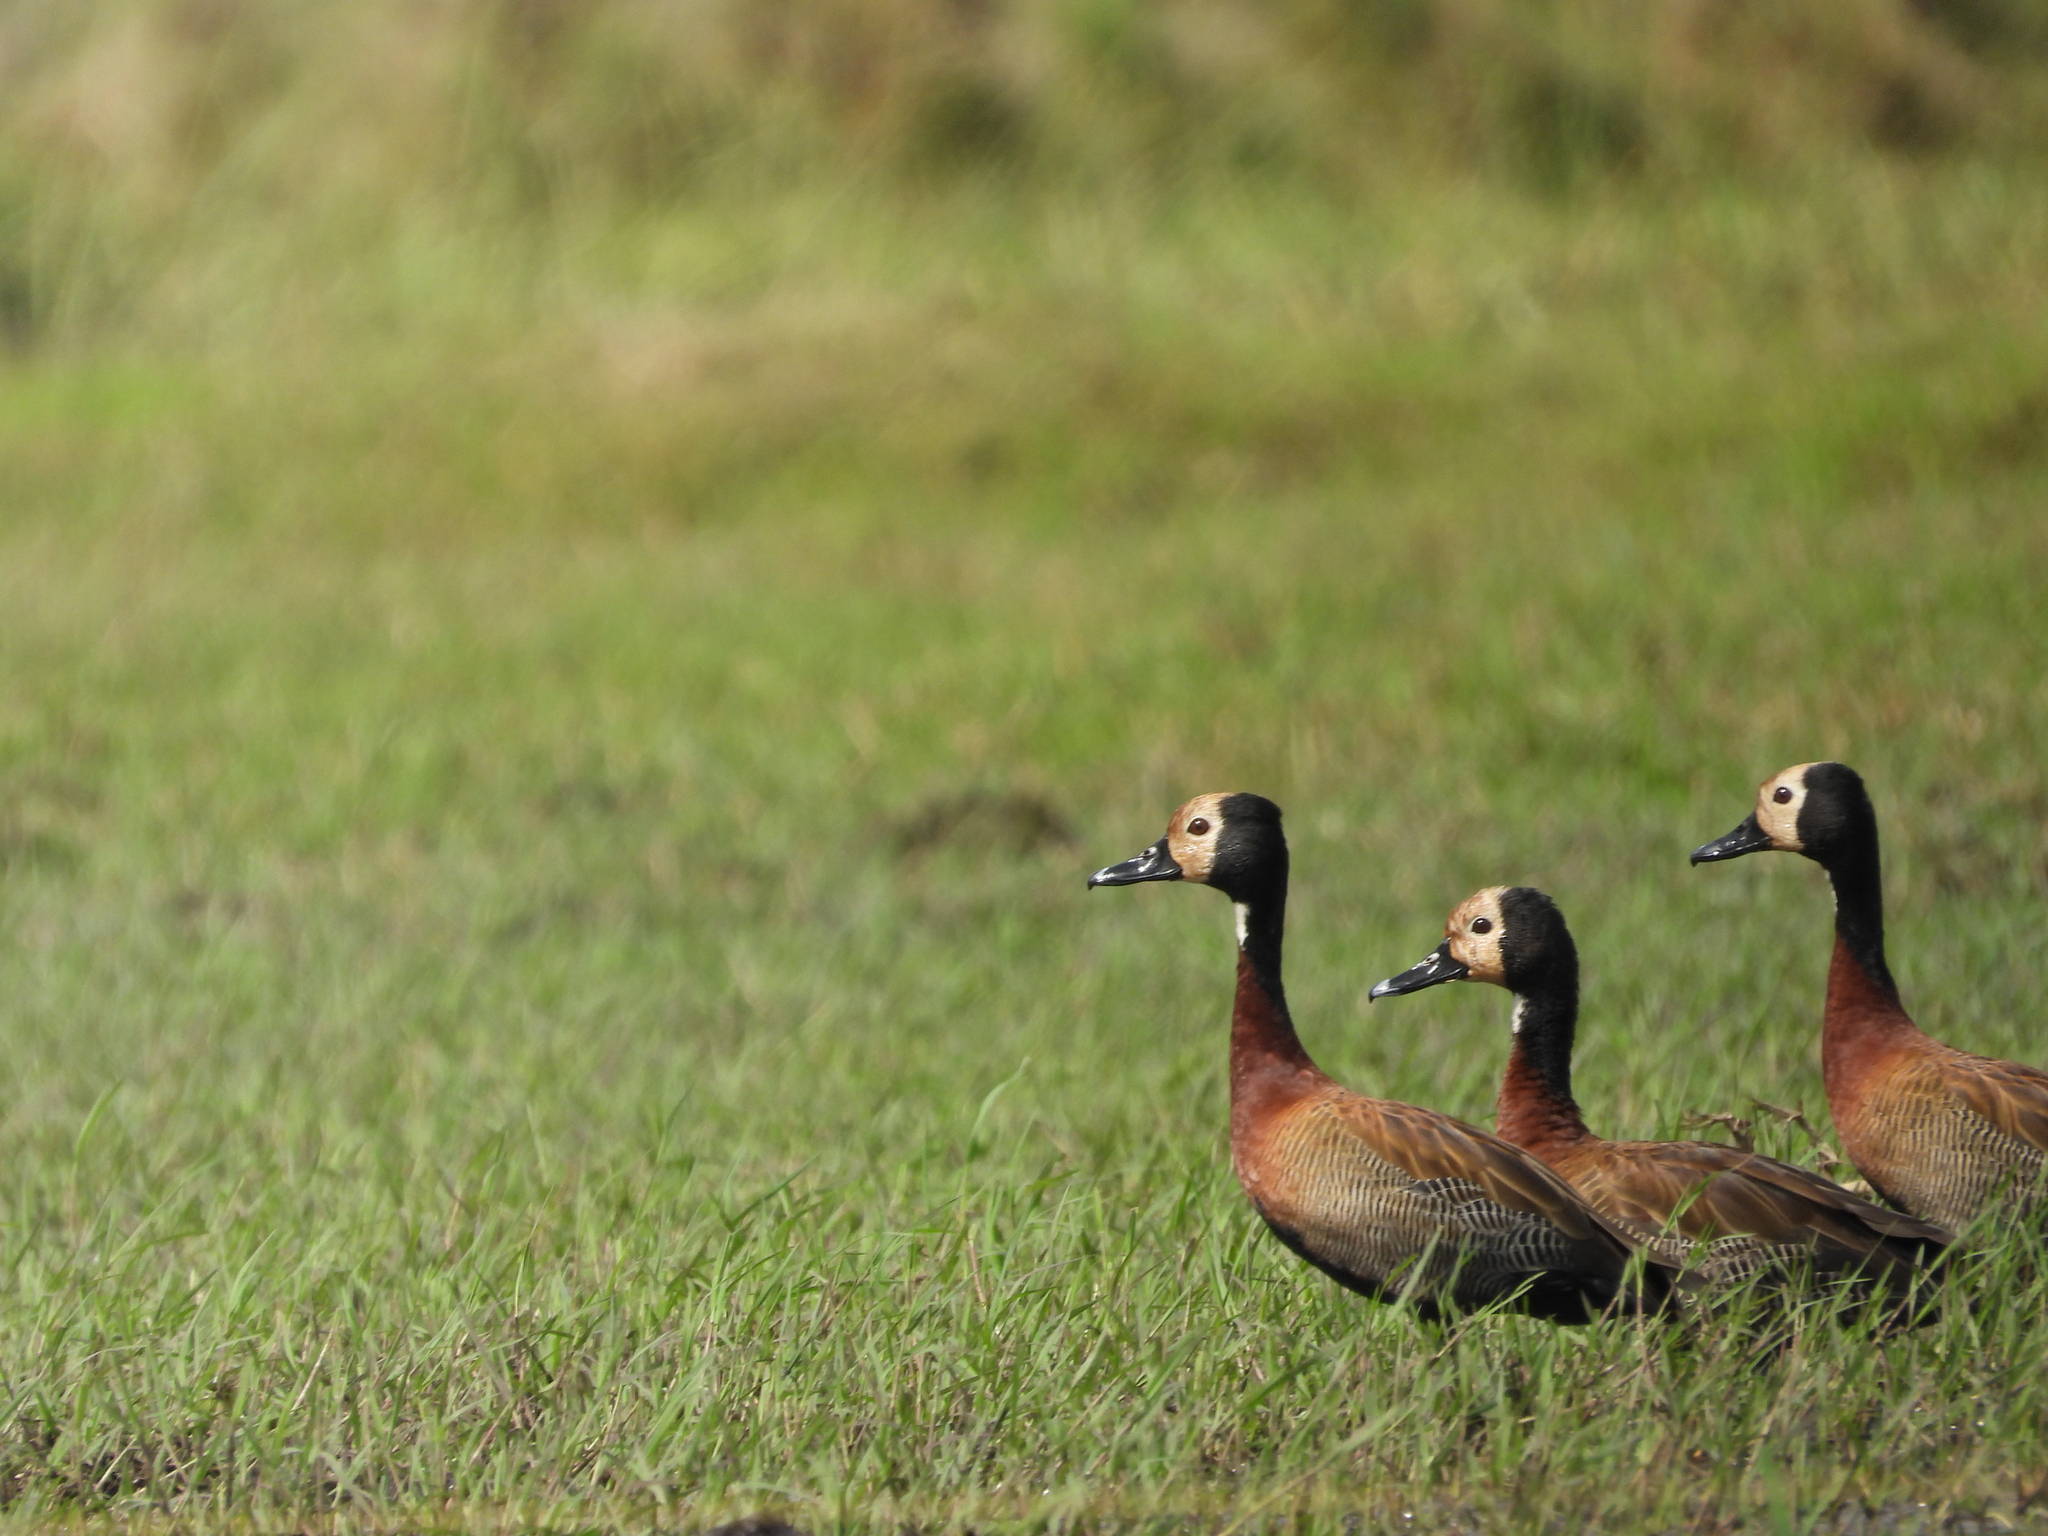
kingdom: Animalia
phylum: Chordata
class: Aves
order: Anseriformes
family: Anatidae
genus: Dendrocygna
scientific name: Dendrocygna viduata
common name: White-faced whistling duck
